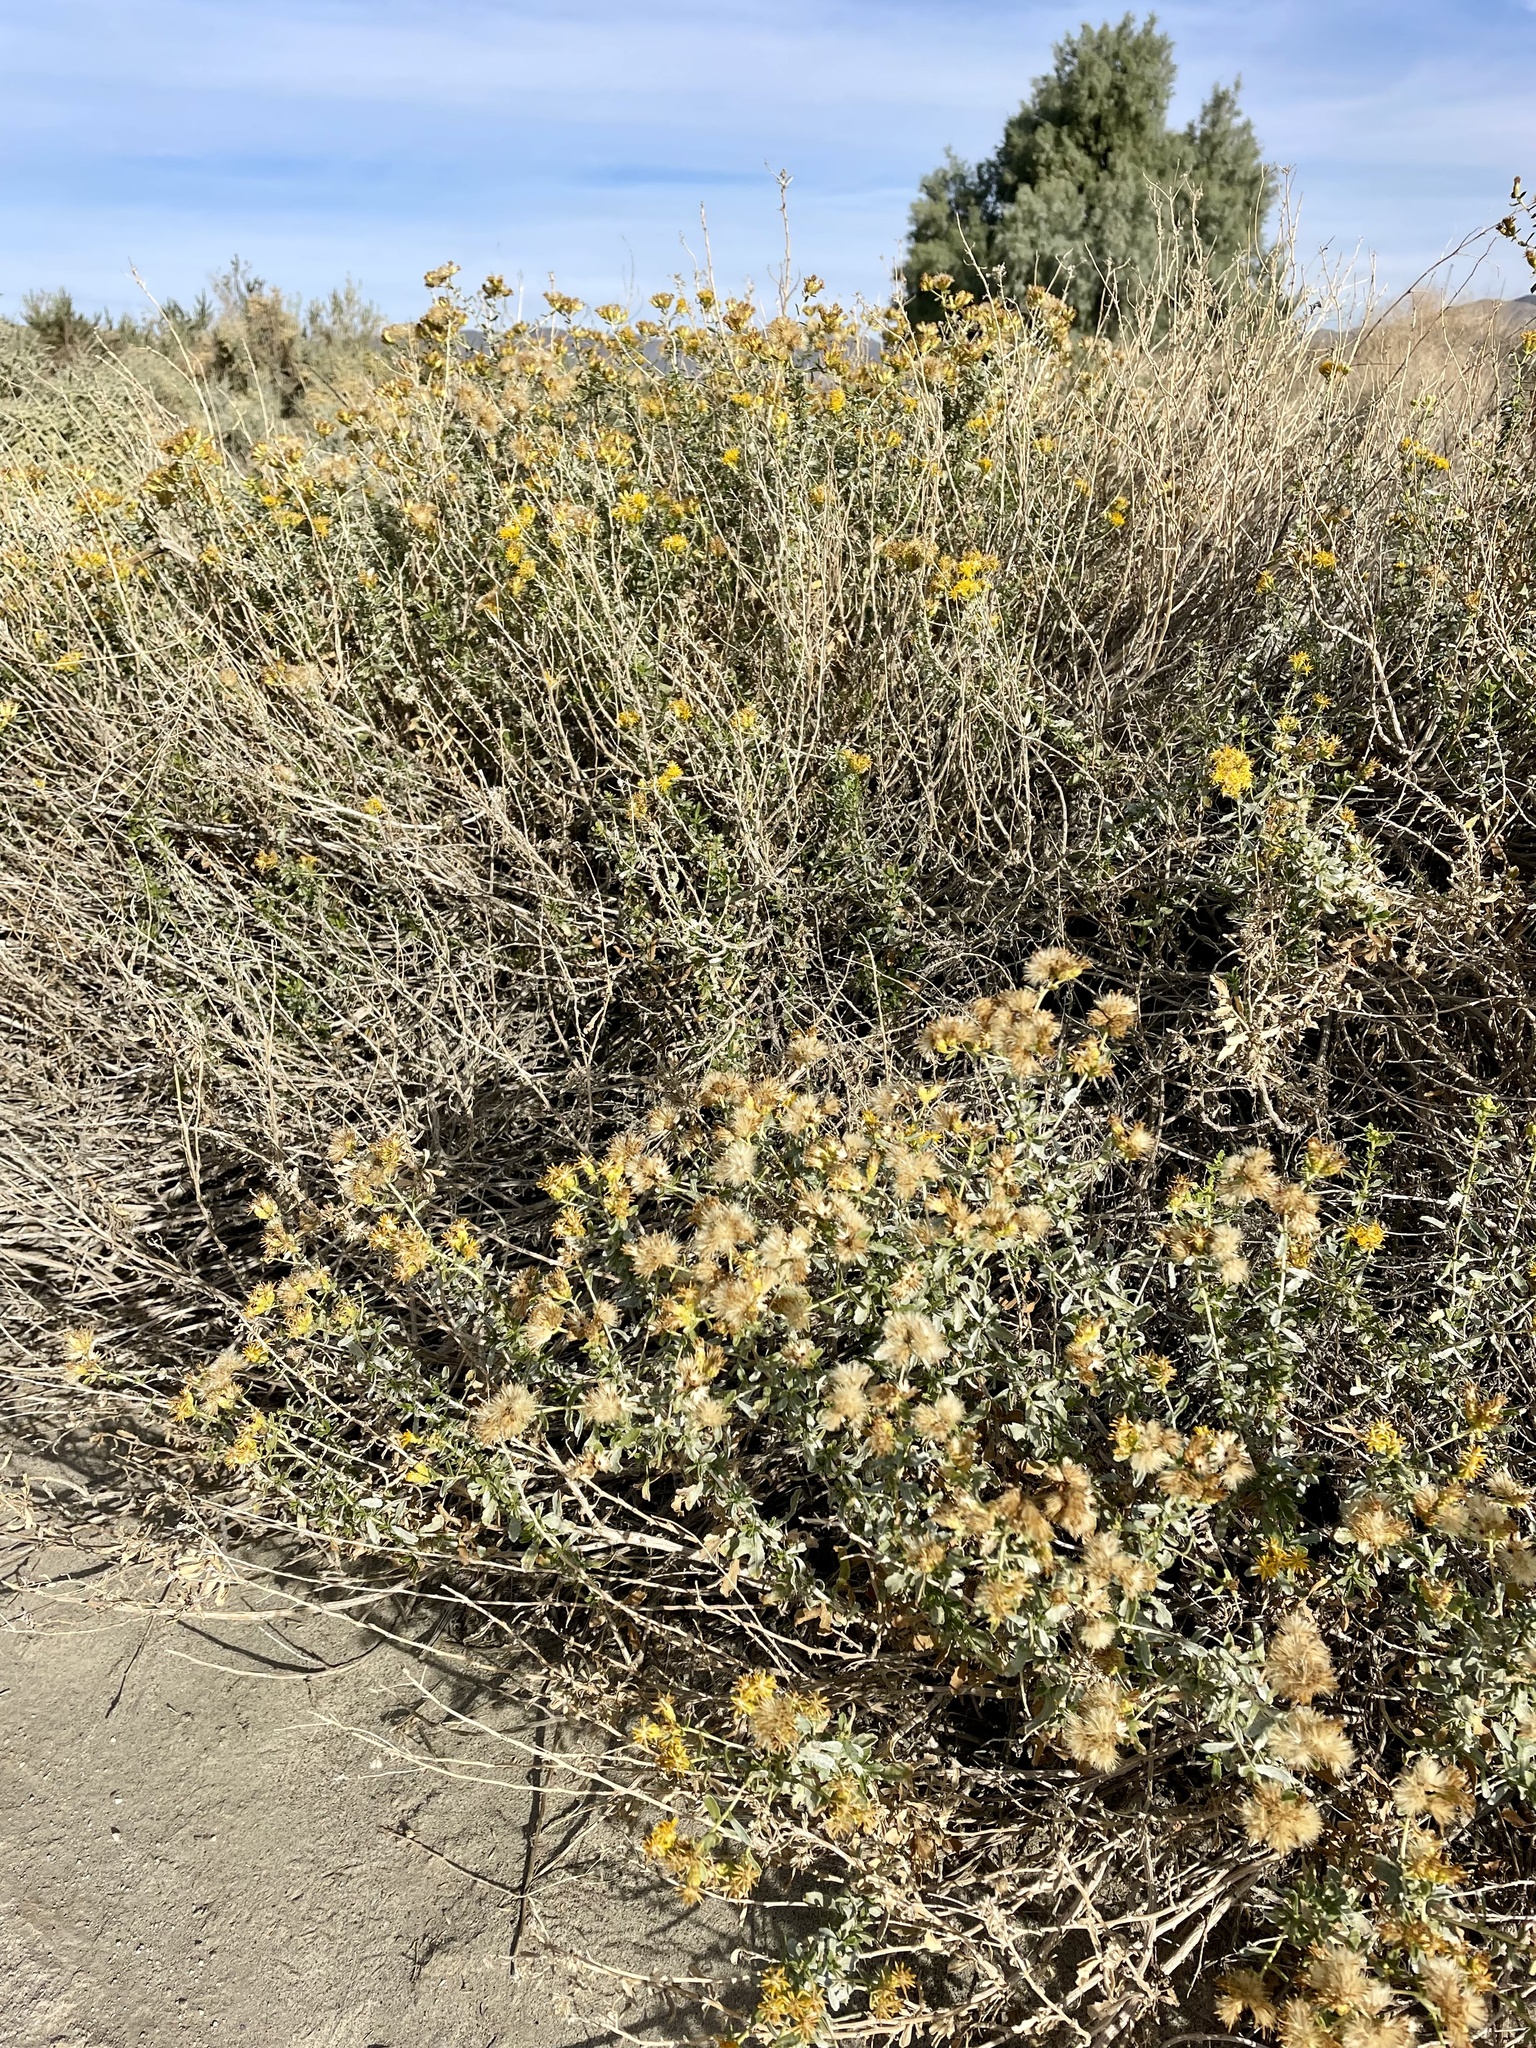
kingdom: Plantae
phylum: Tracheophyta
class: Magnoliopsida
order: Asterales
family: Asteraceae
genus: Isocoma
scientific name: Isocoma acradenia
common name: Alkali jimmyweed
